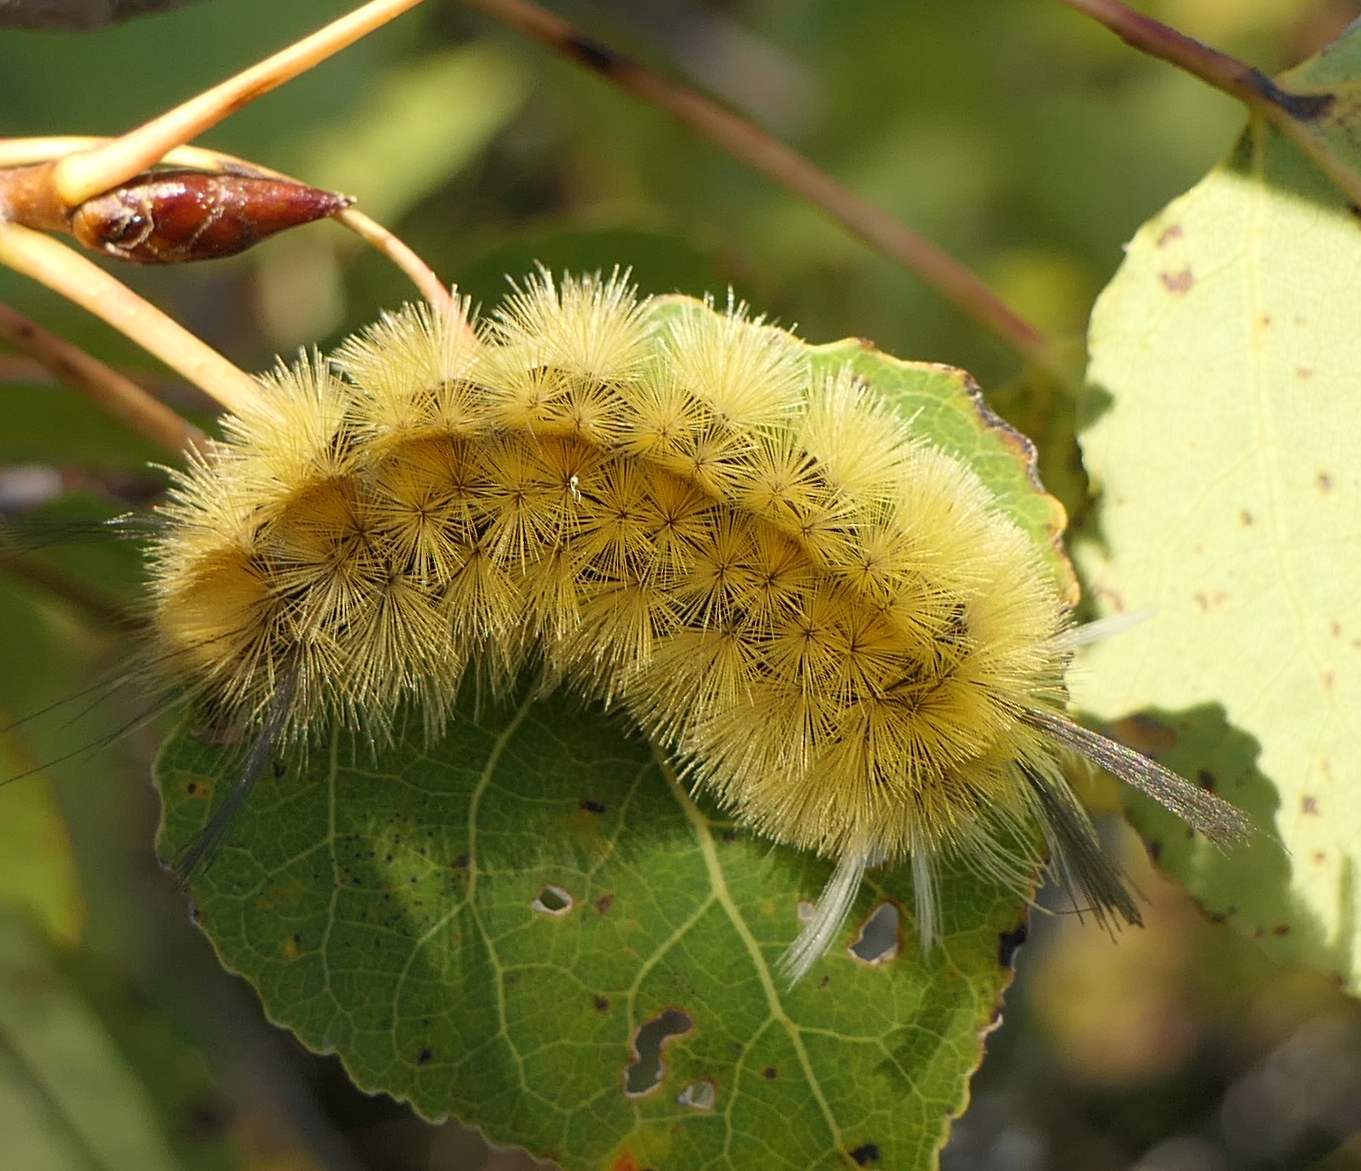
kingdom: Animalia
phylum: Arthropoda
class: Insecta
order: Lepidoptera
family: Erebidae
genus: Halysidota
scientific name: Halysidota tessellaris
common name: Banded tussock moth
